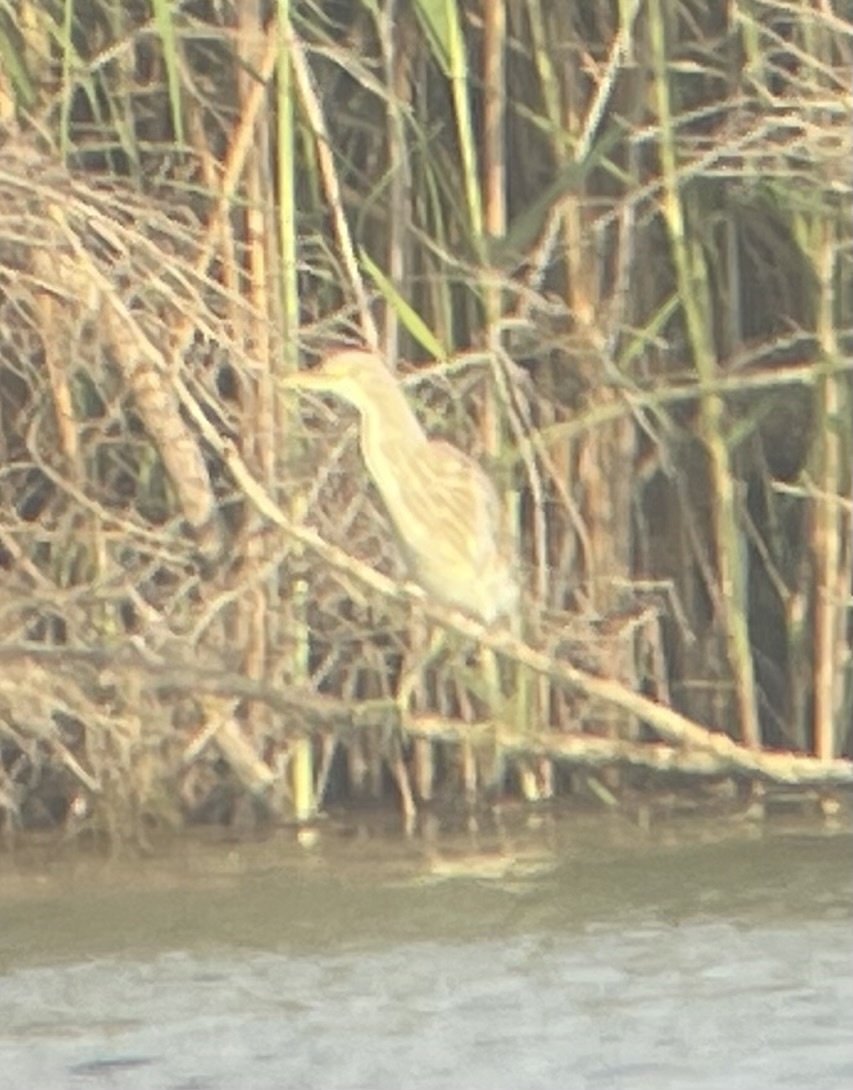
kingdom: Animalia
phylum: Chordata
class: Aves
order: Pelecaniformes
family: Ardeidae
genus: Ardeola
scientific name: Ardeola ralloides
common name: Squacco heron
